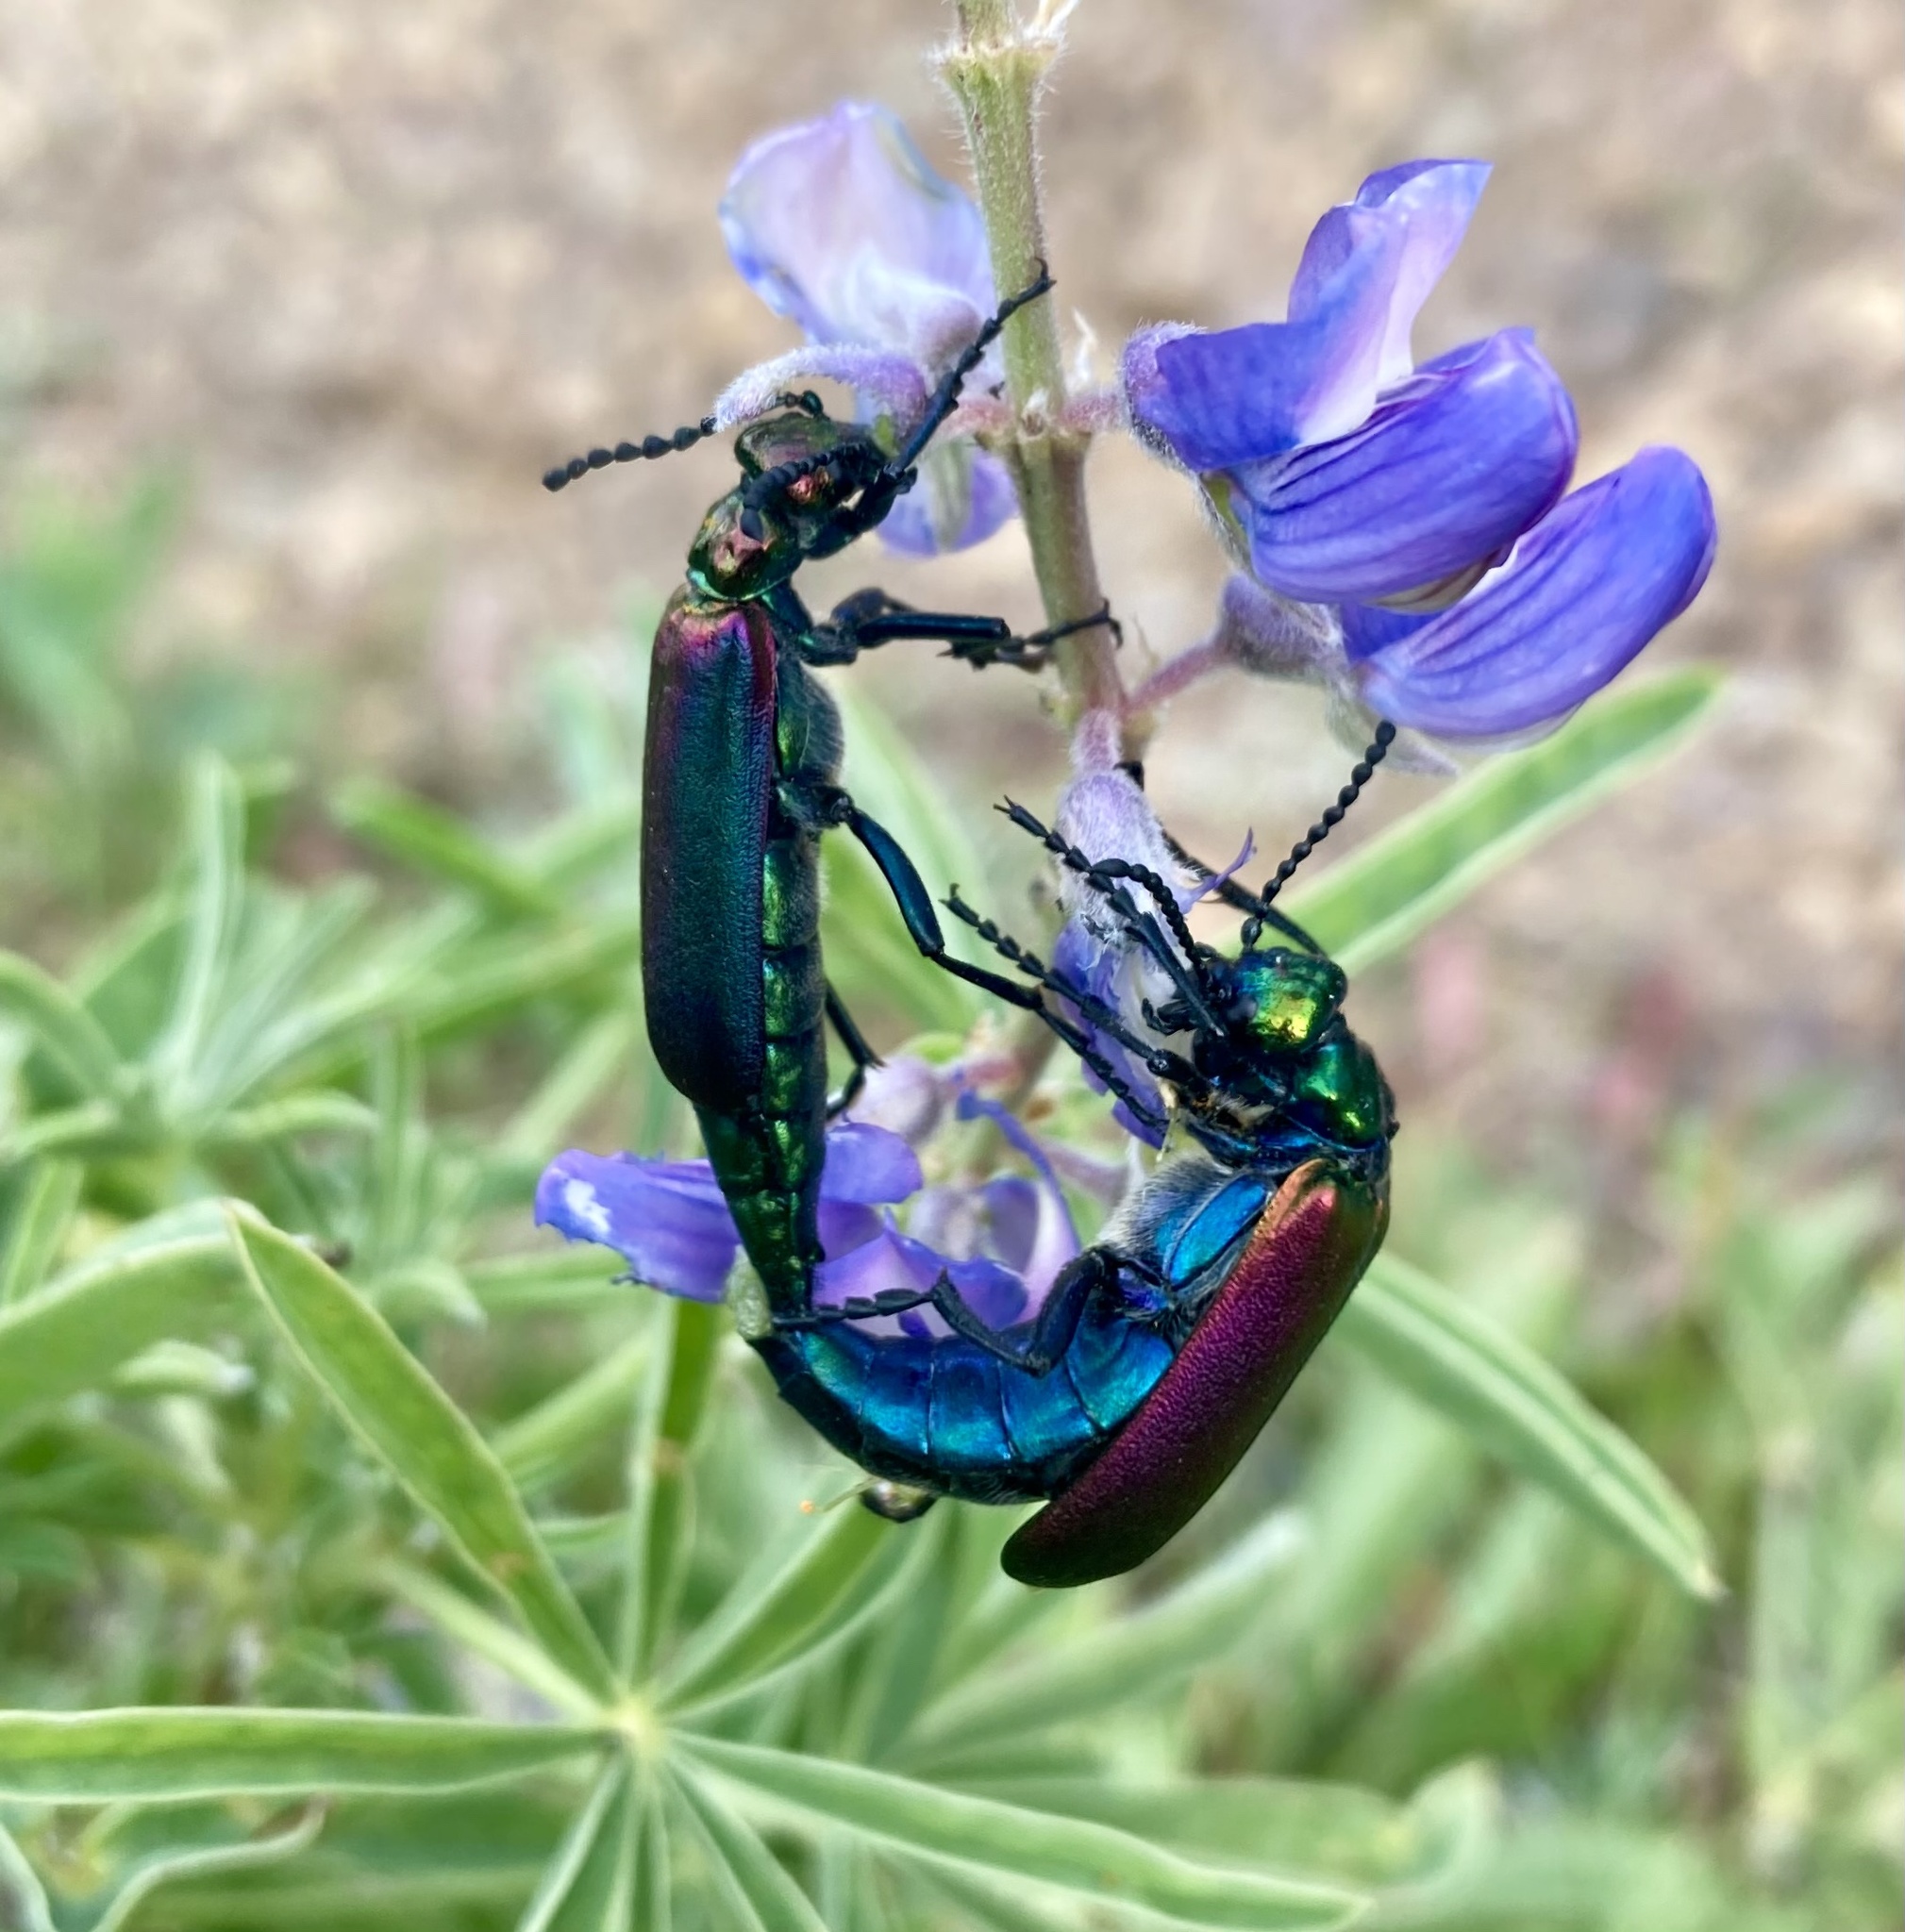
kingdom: Animalia
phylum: Arthropoda
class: Insecta
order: Coleoptera
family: Meloidae
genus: Lytta
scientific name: Lytta nuttallii
